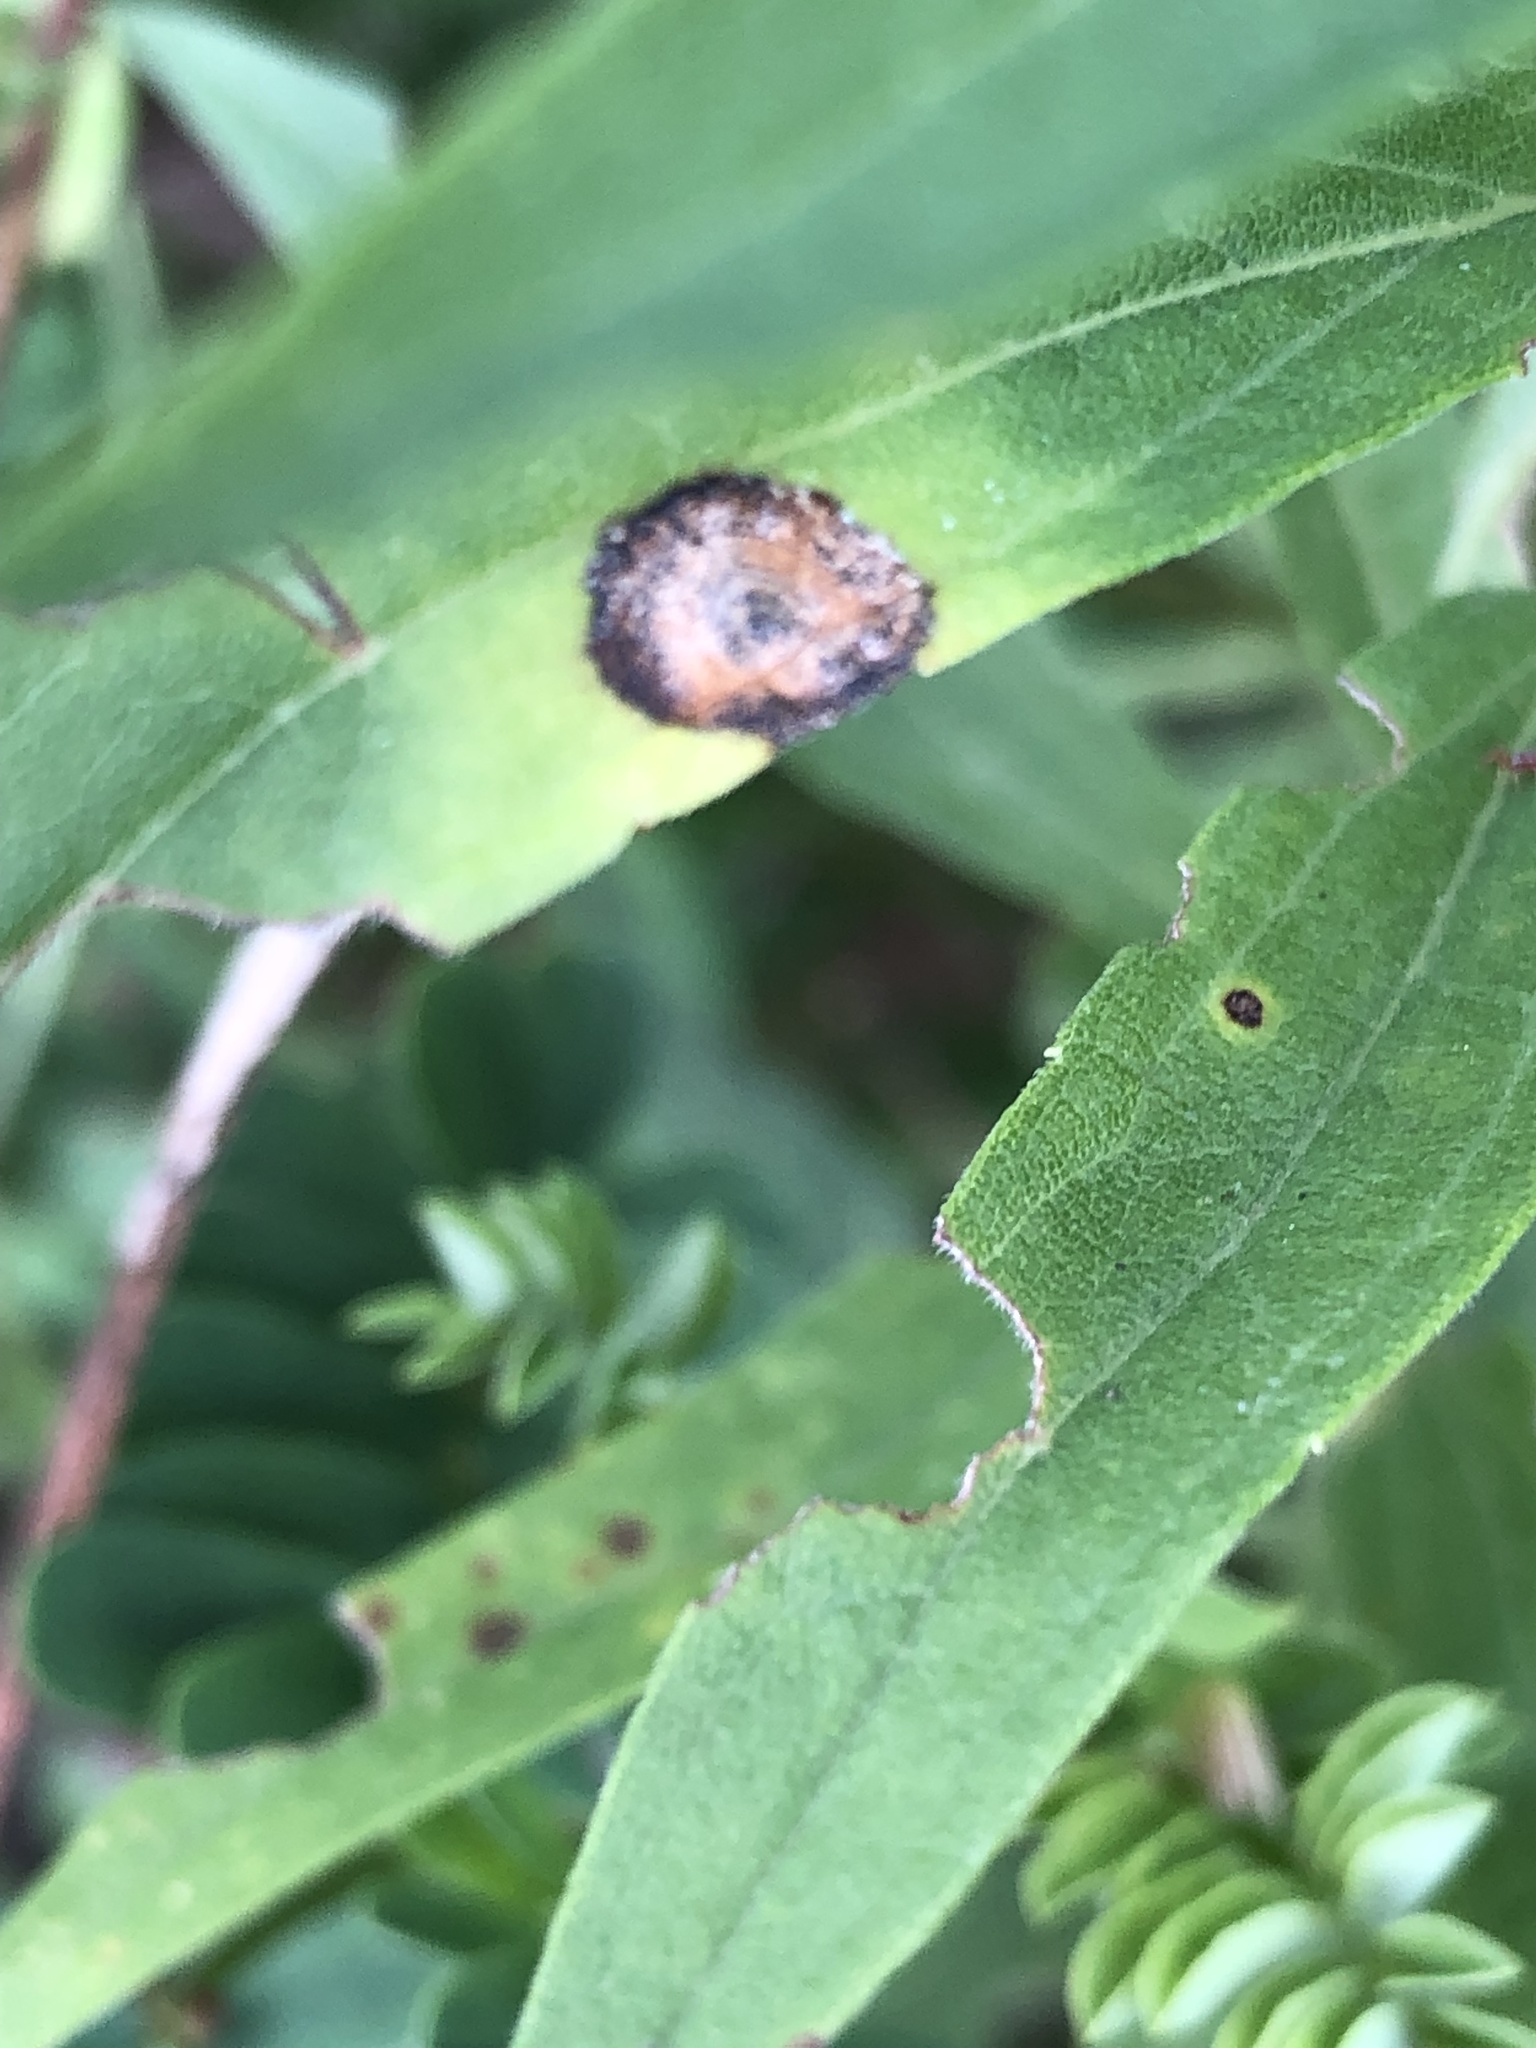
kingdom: Animalia
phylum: Arthropoda
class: Insecta
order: Diptera
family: Cecidomyiidae
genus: Asteromyia
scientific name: Asteromyia carbonifera
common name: Carbonifera goldenrod gall midge
